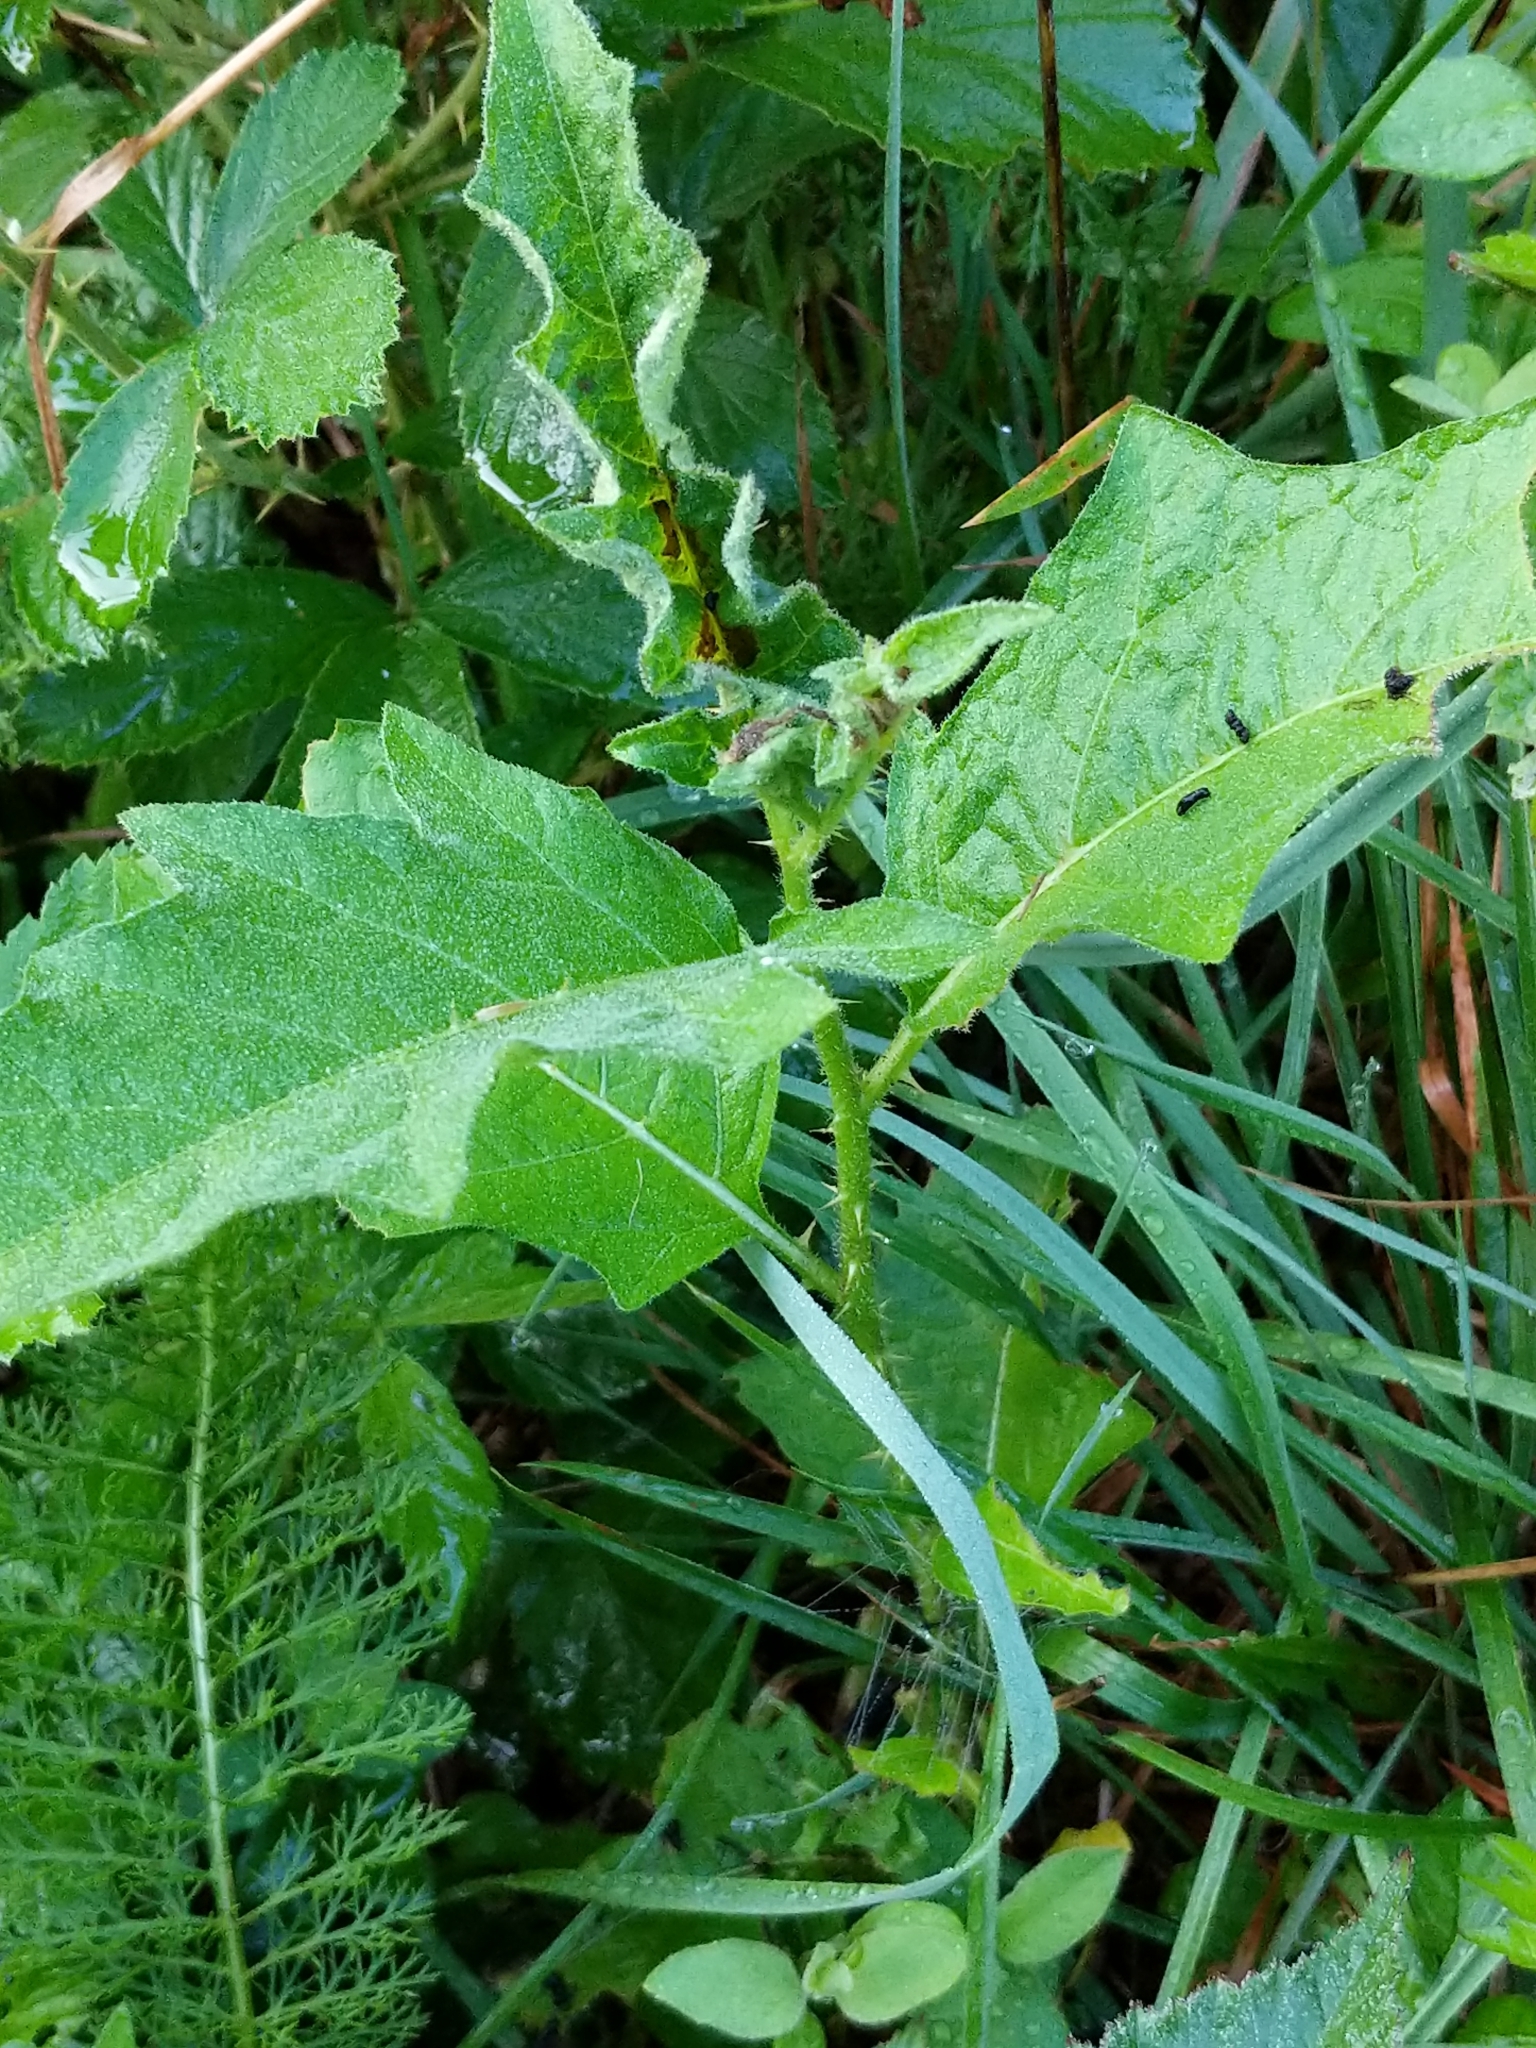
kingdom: Plantae
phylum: Tracheophyta
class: Magnoliopsida
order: Solanales
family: Solanaceae
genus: Solanum
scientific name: Solanum carolinense
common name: Horse-nettle
